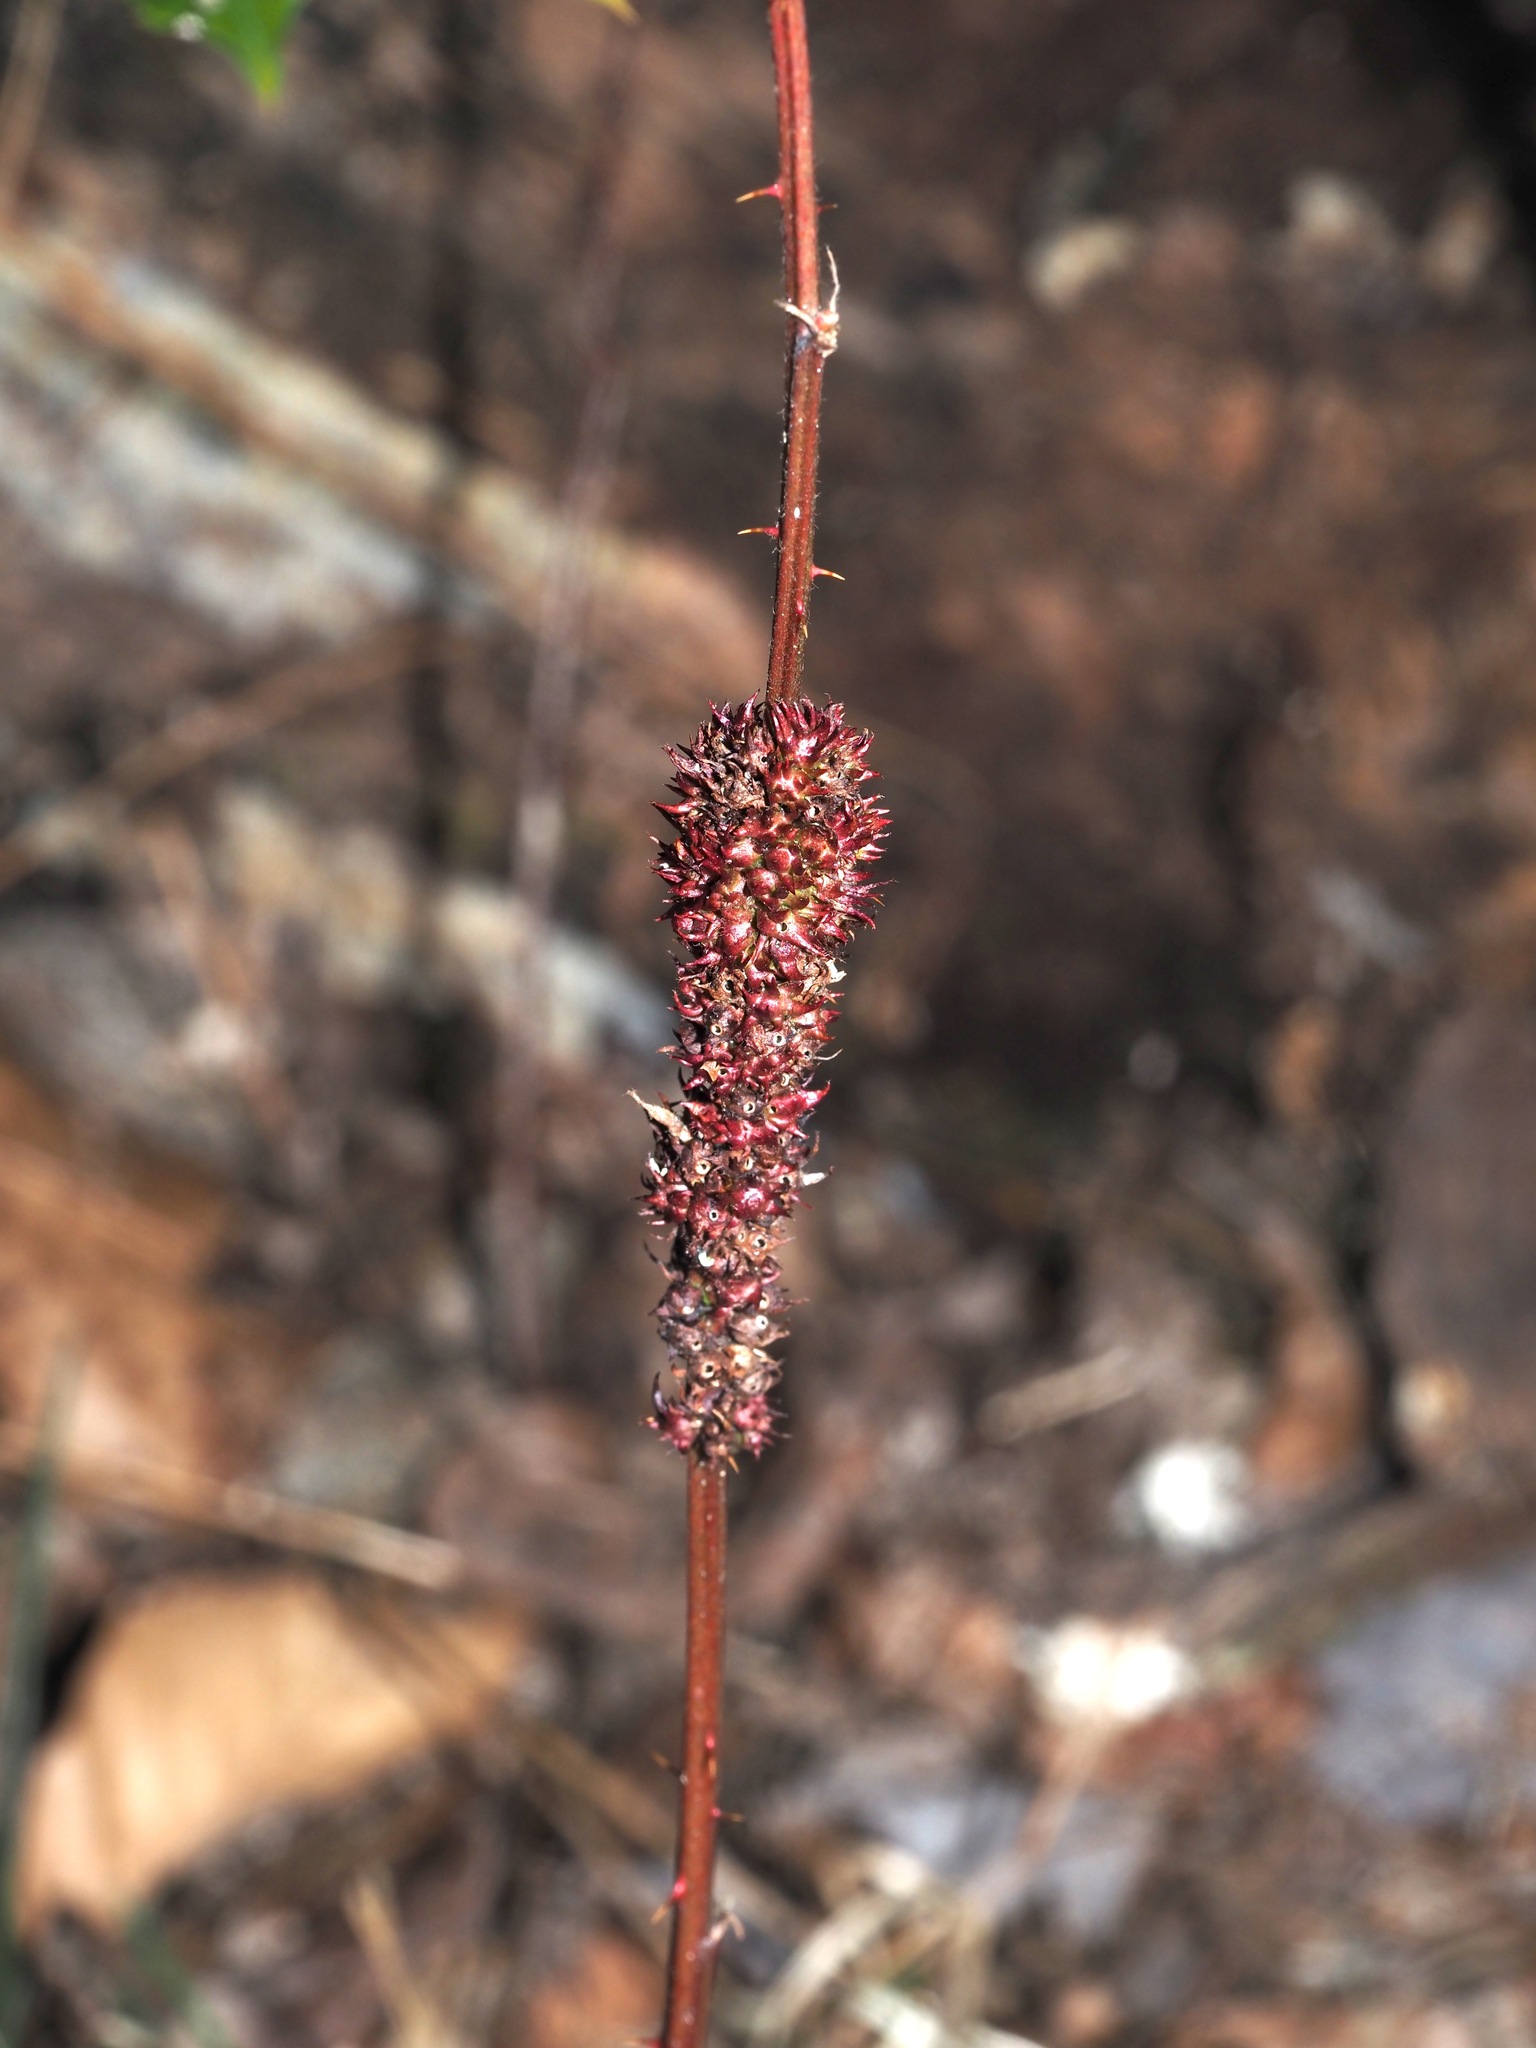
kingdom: Animalia
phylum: Arthropoda
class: Insecta
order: Hymenoptera
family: Cynipidae
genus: Diastrophus
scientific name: Diastrophus
